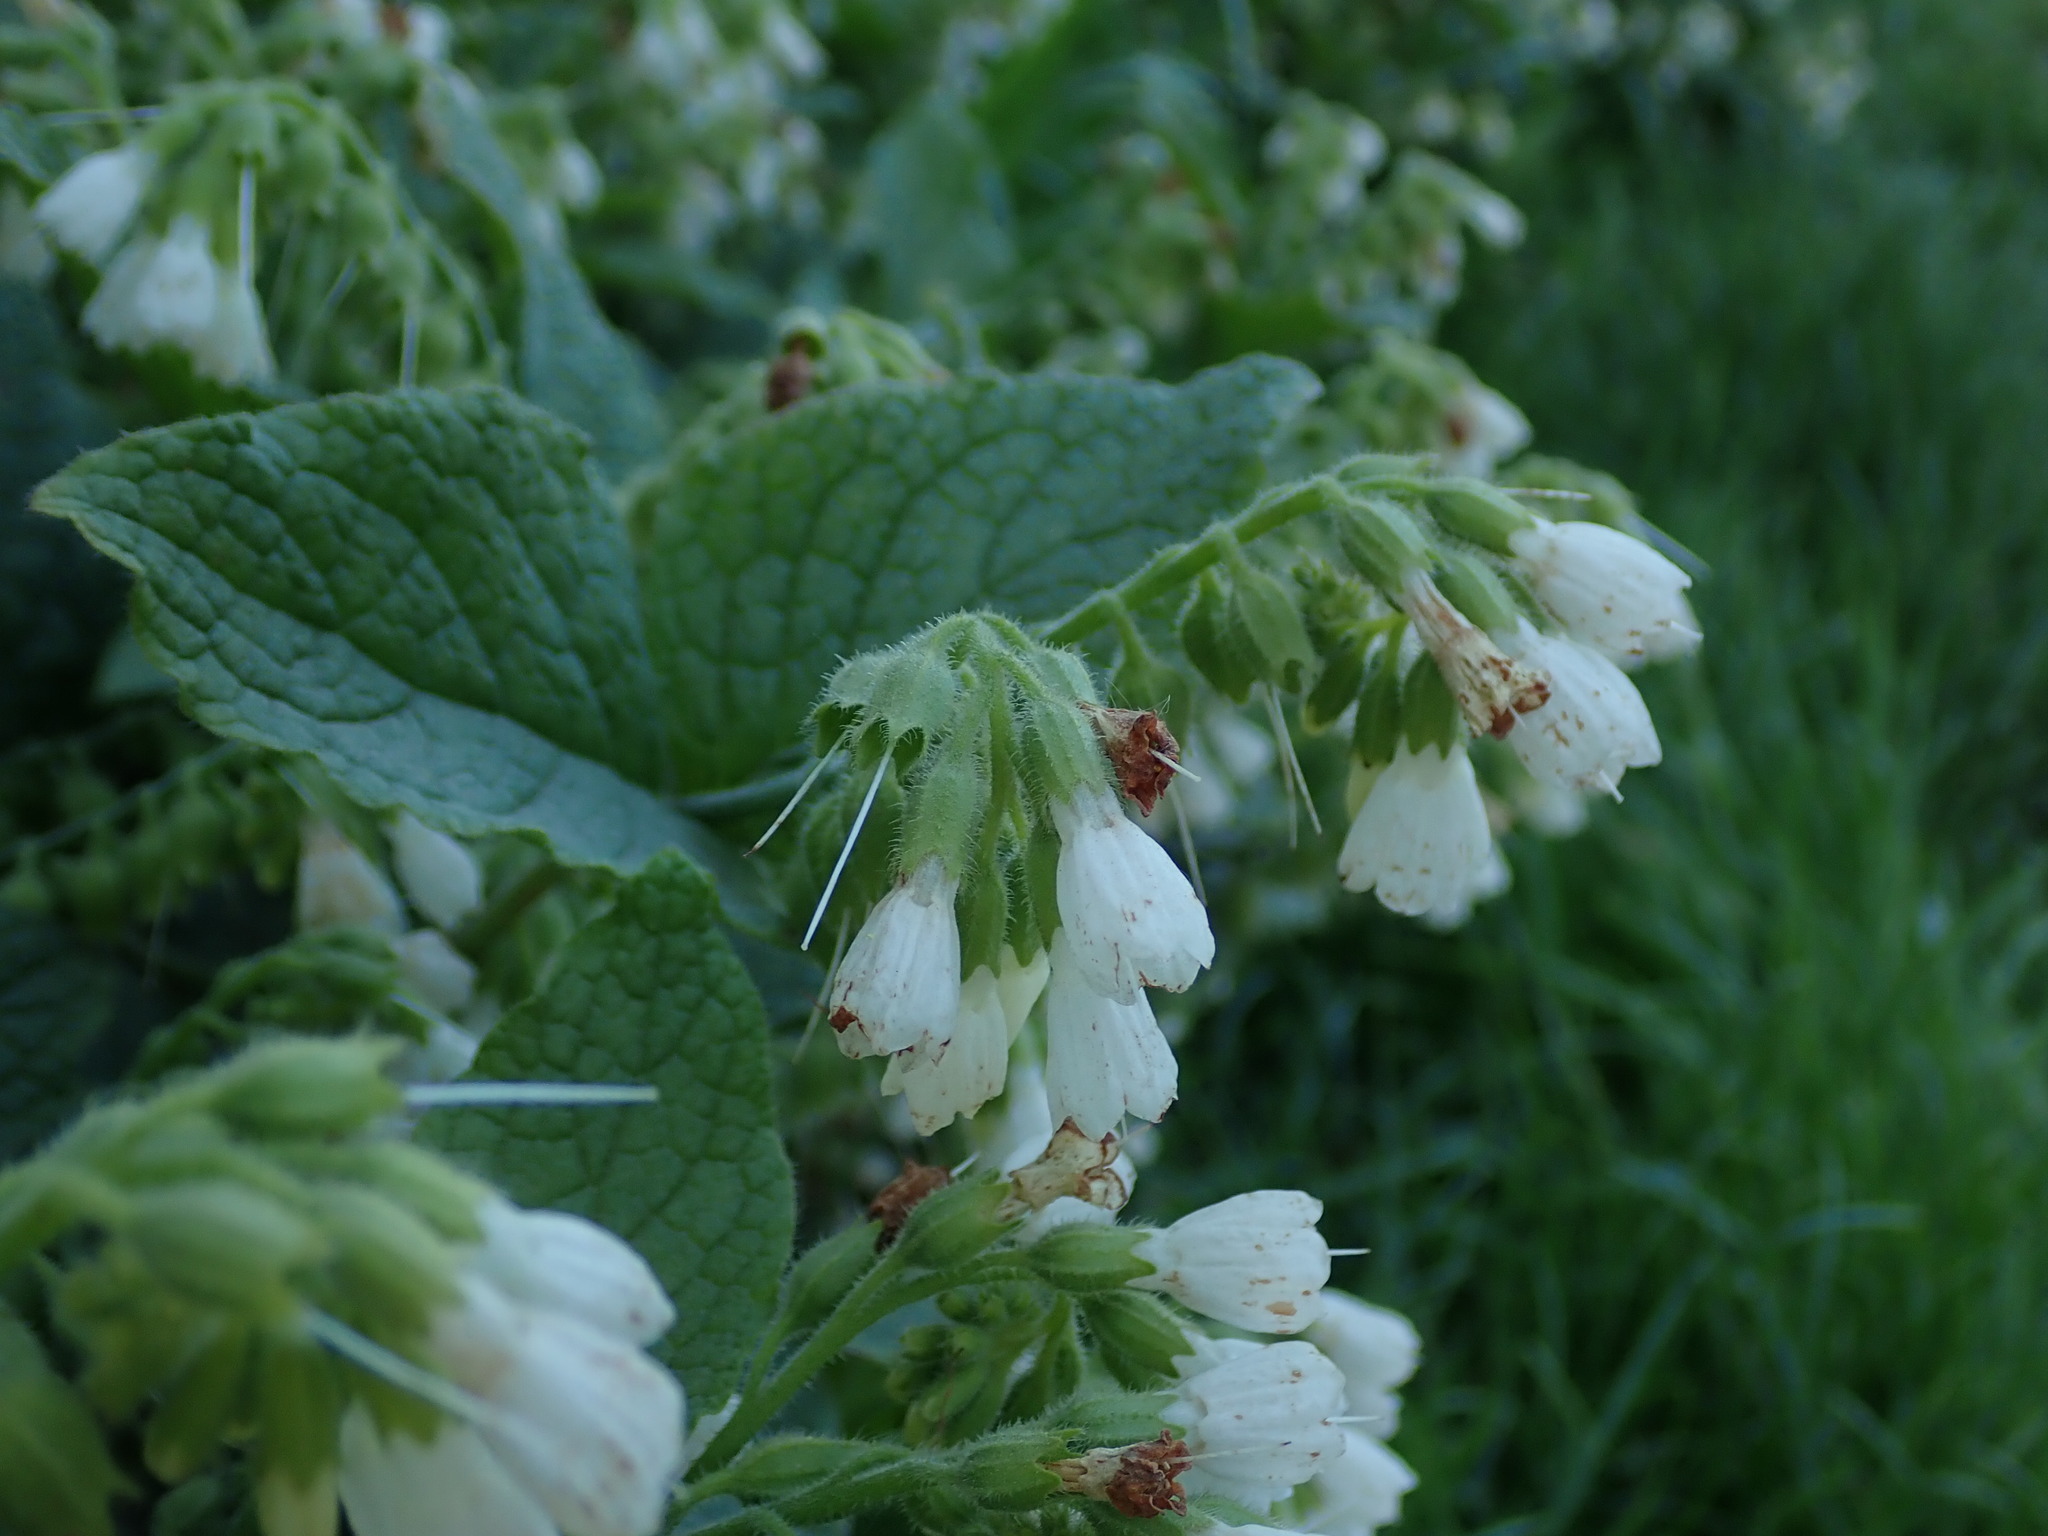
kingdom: Plantae
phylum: Tracheophyta
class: Magnoliopsida
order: Boraginales
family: Boraginaceae
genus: Symphytum
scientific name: Symphytum orientale
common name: White comfrey
